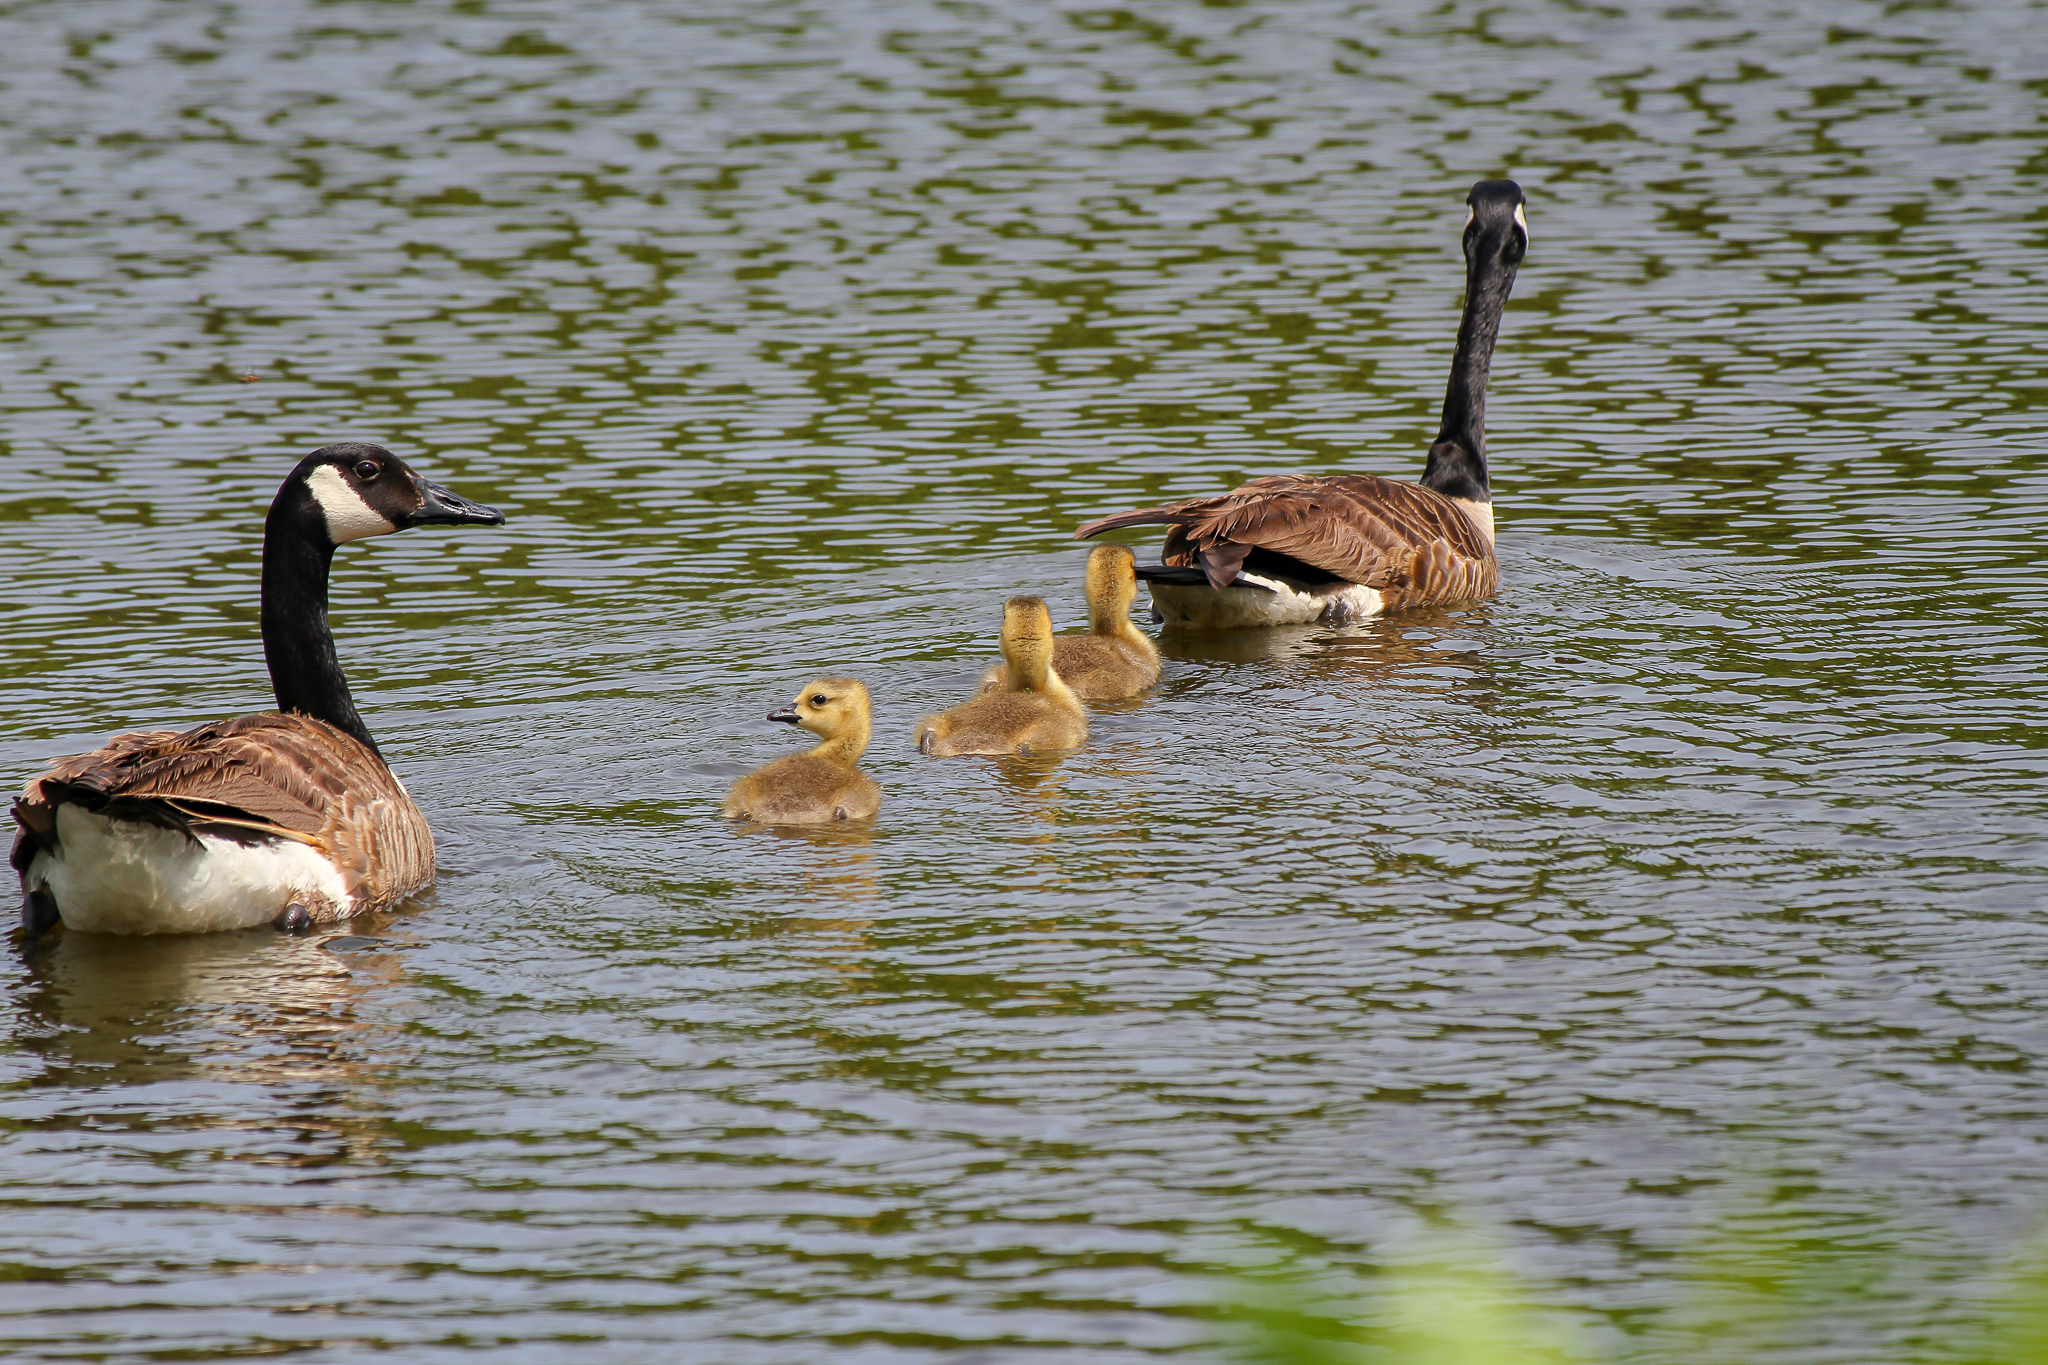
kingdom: Animalia
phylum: Chordata
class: Aves
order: Anseriformes
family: Anatidae
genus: Branta
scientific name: Branta canadensis
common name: Canada goose
